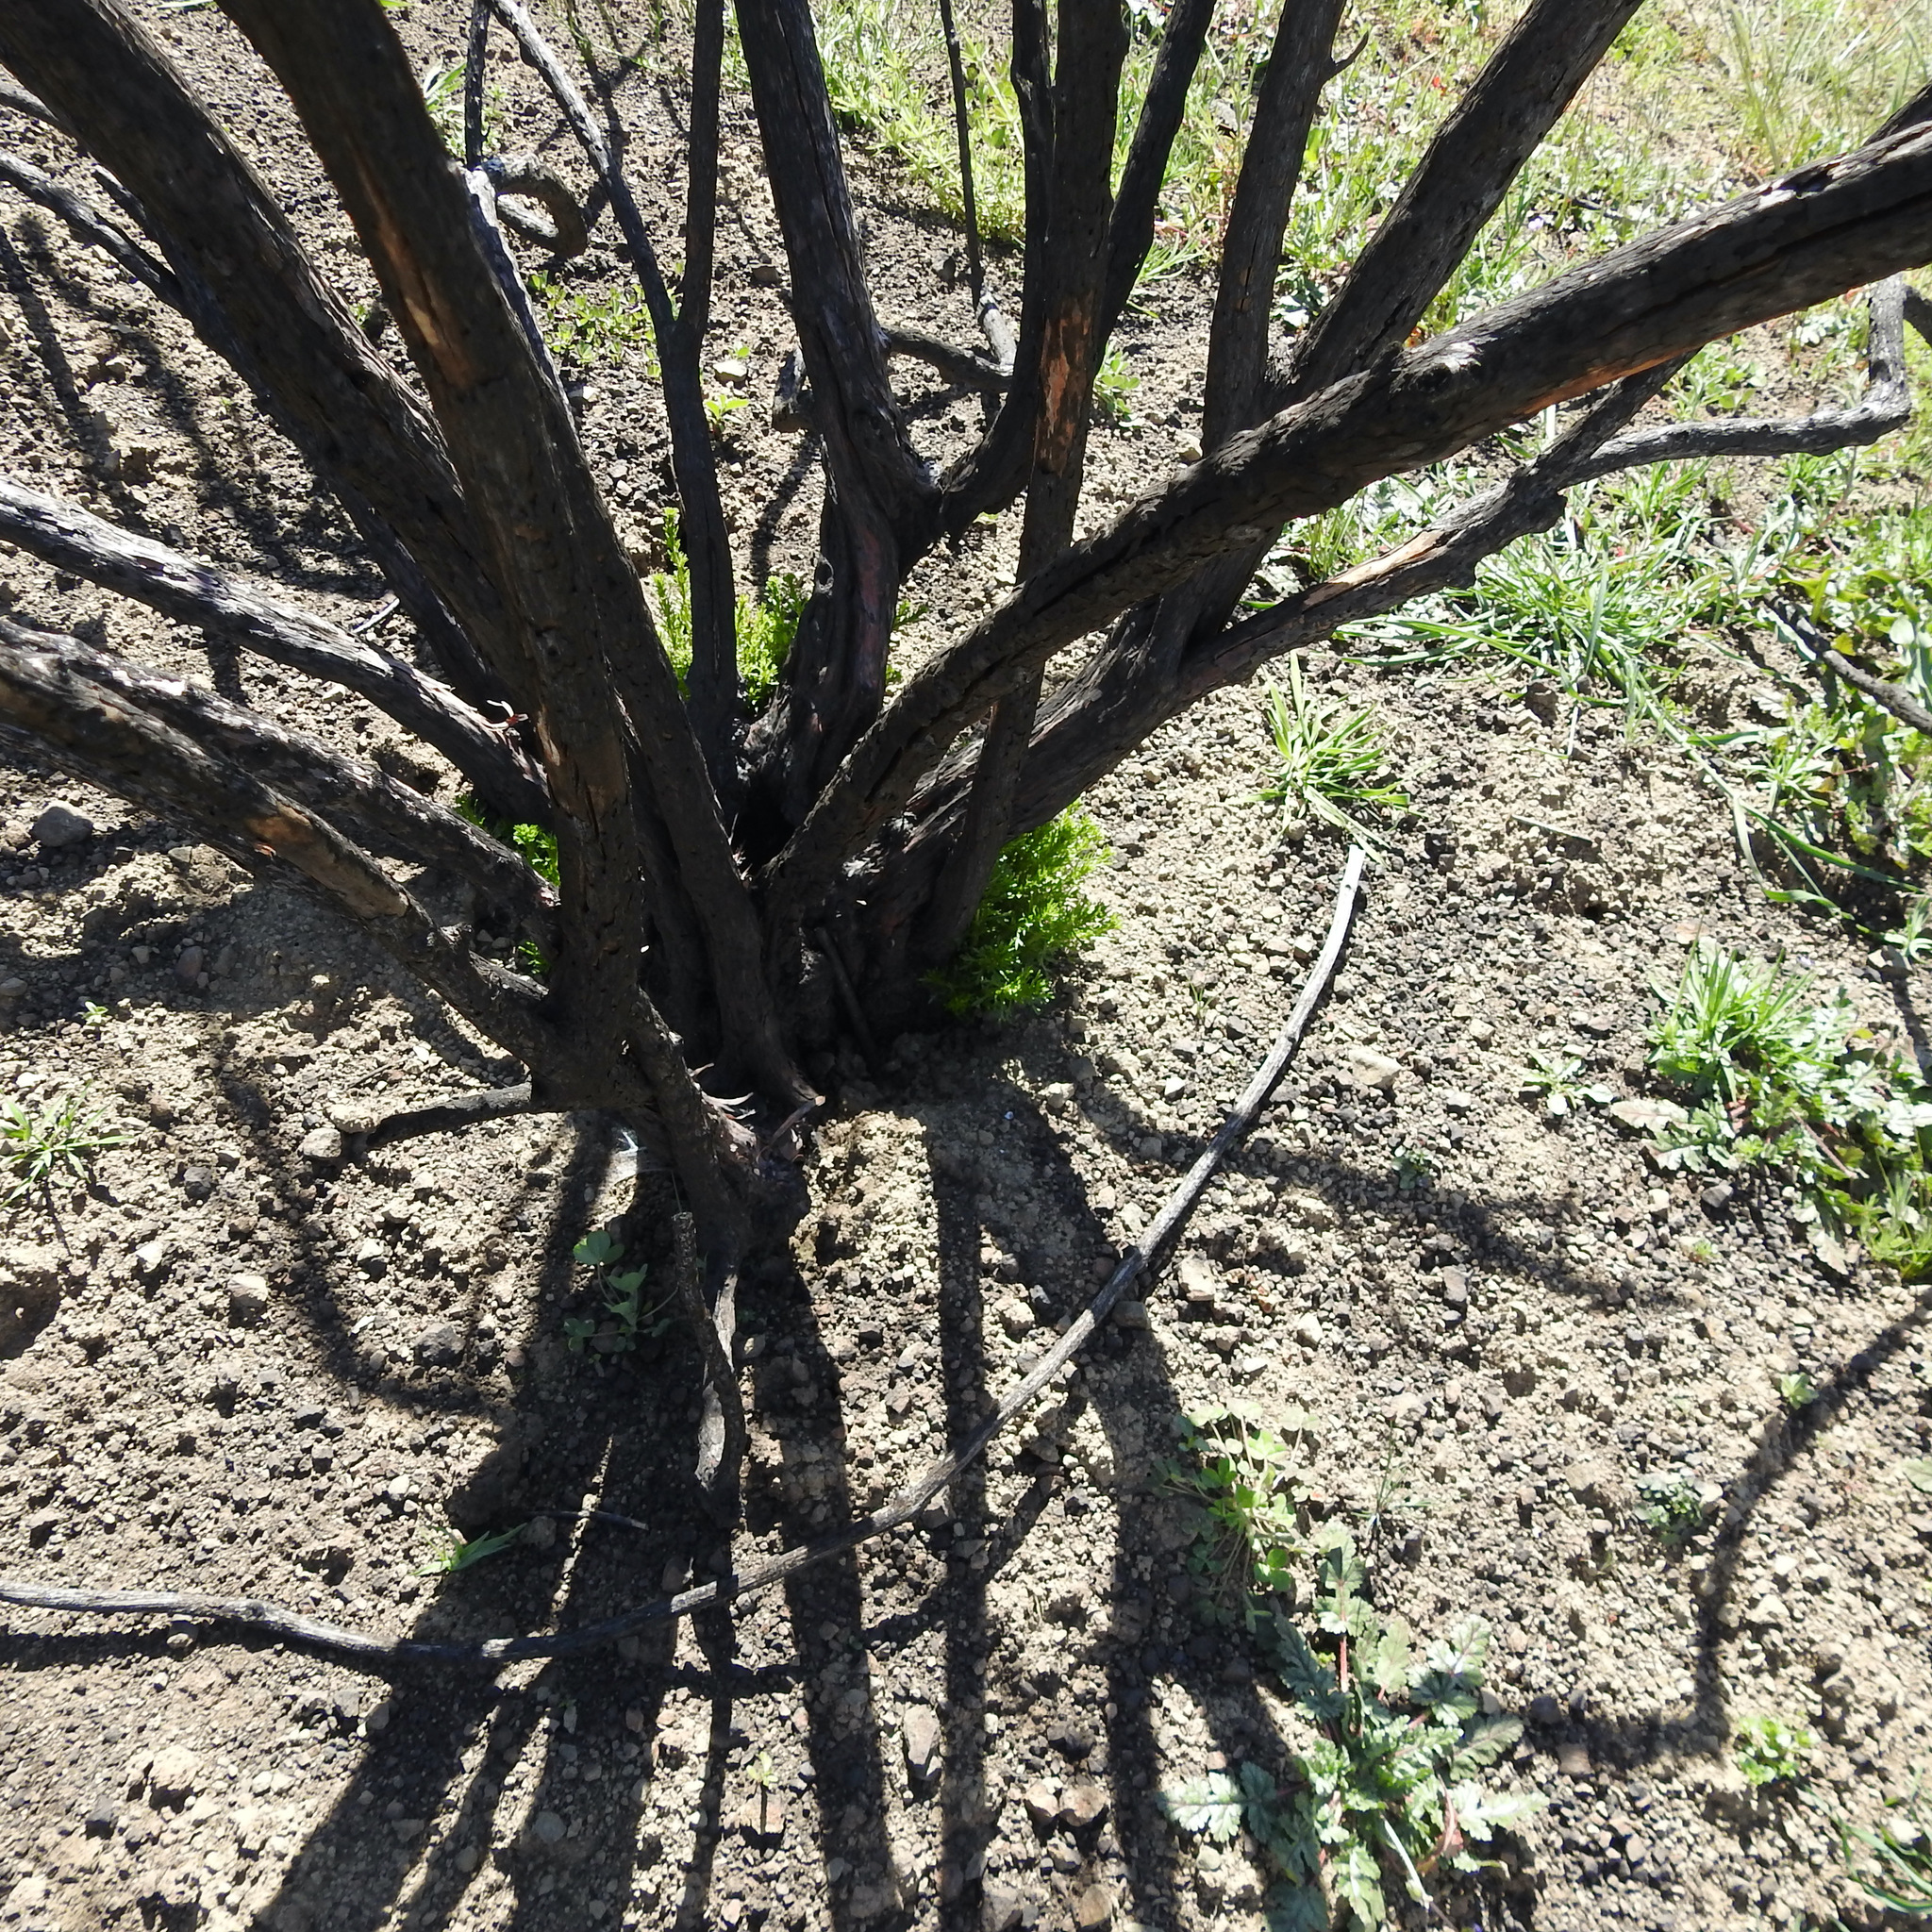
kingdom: Plantae
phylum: Tracheophyta
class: Magnoliopsida
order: Rosales
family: Rosaceae
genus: Adenostoma
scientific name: Adenostoma fasciculatum
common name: Chamise
